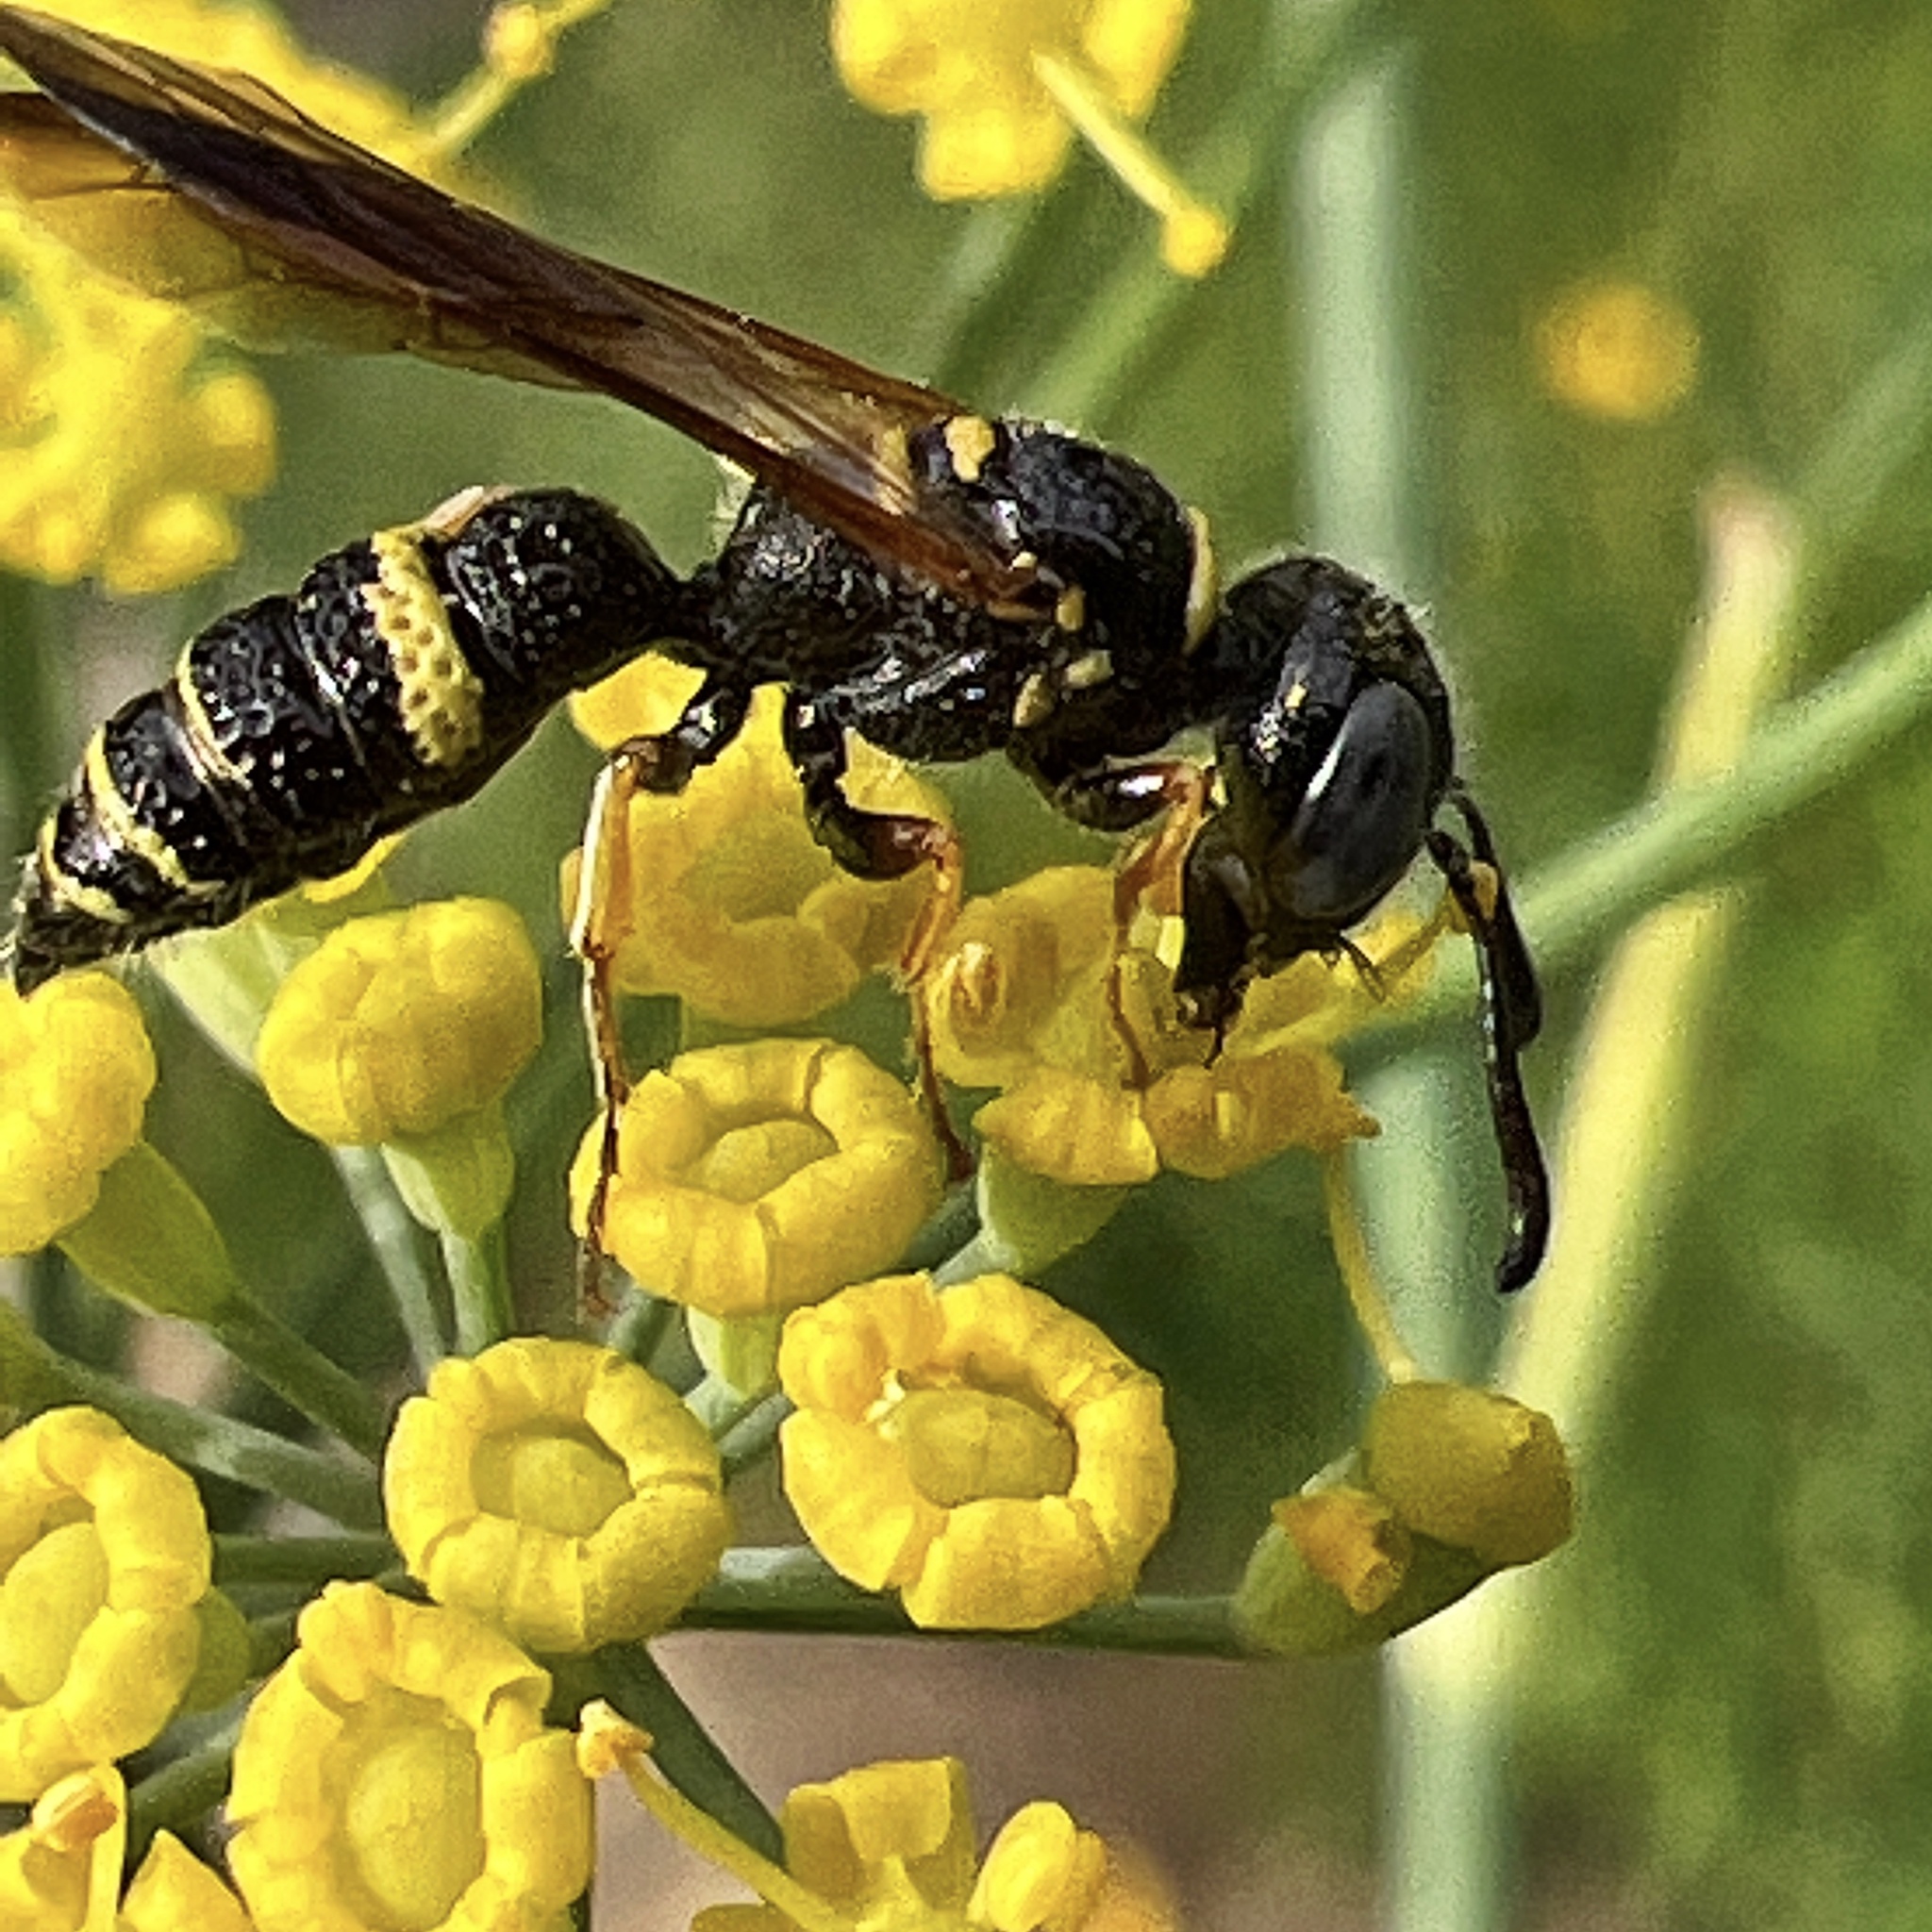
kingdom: Animalia
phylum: Arthropoda
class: Insecta
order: Hymenoptera
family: Crabronidae
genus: Philanthus
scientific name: Philanthus gibbosus
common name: Humped beewolf
